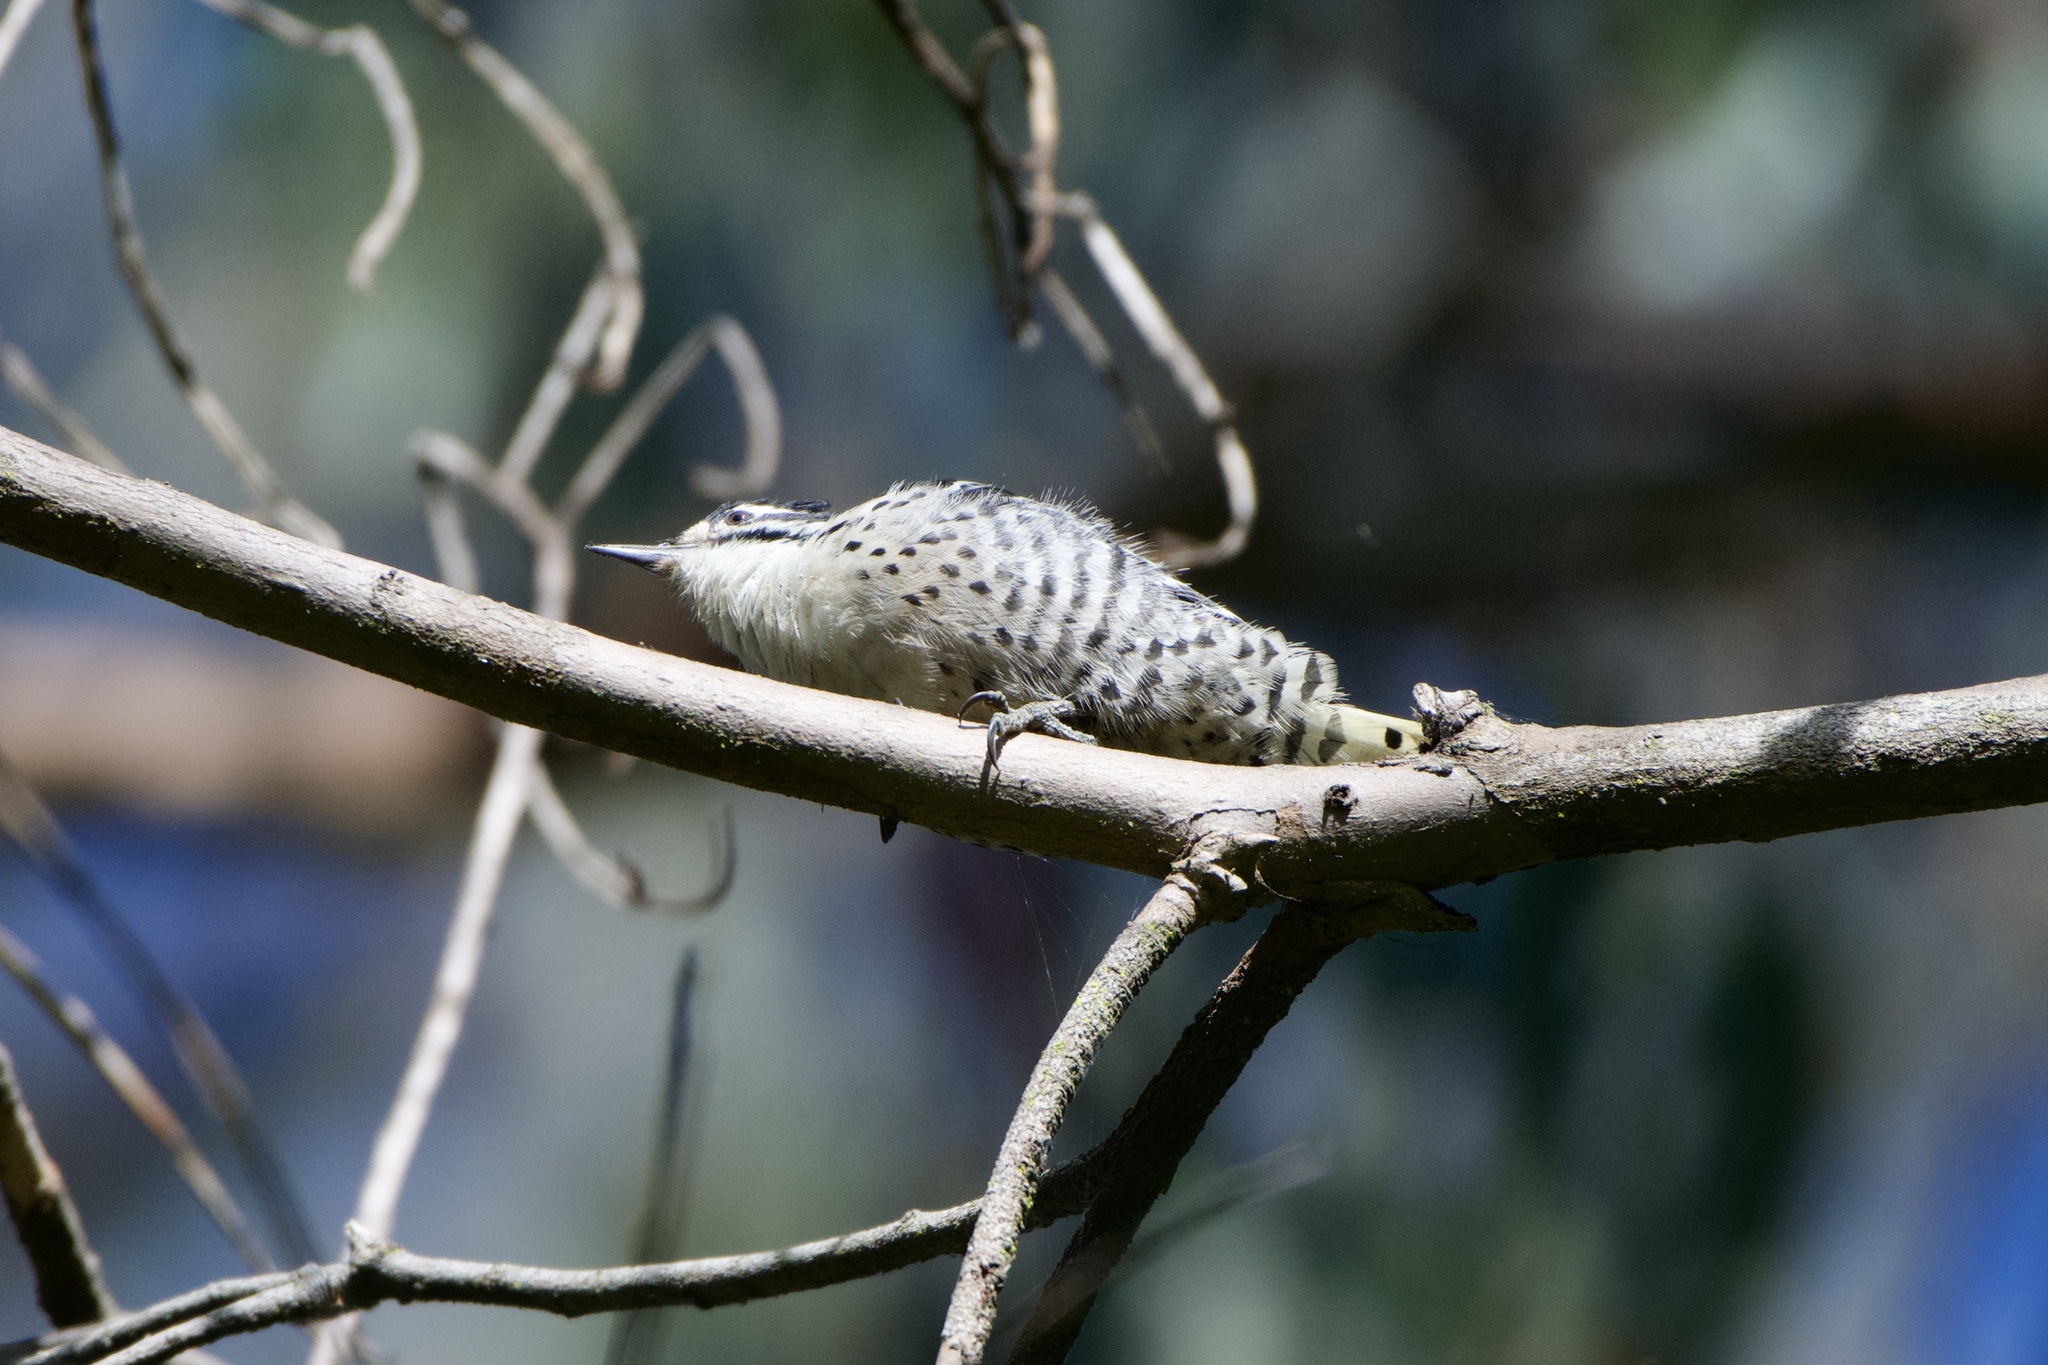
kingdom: Animalia
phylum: Chordata
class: Aves
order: Piciformes
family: Picidae
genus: Dryobates
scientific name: Dryobates nuttallii
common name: Nuttall's woodpecker
